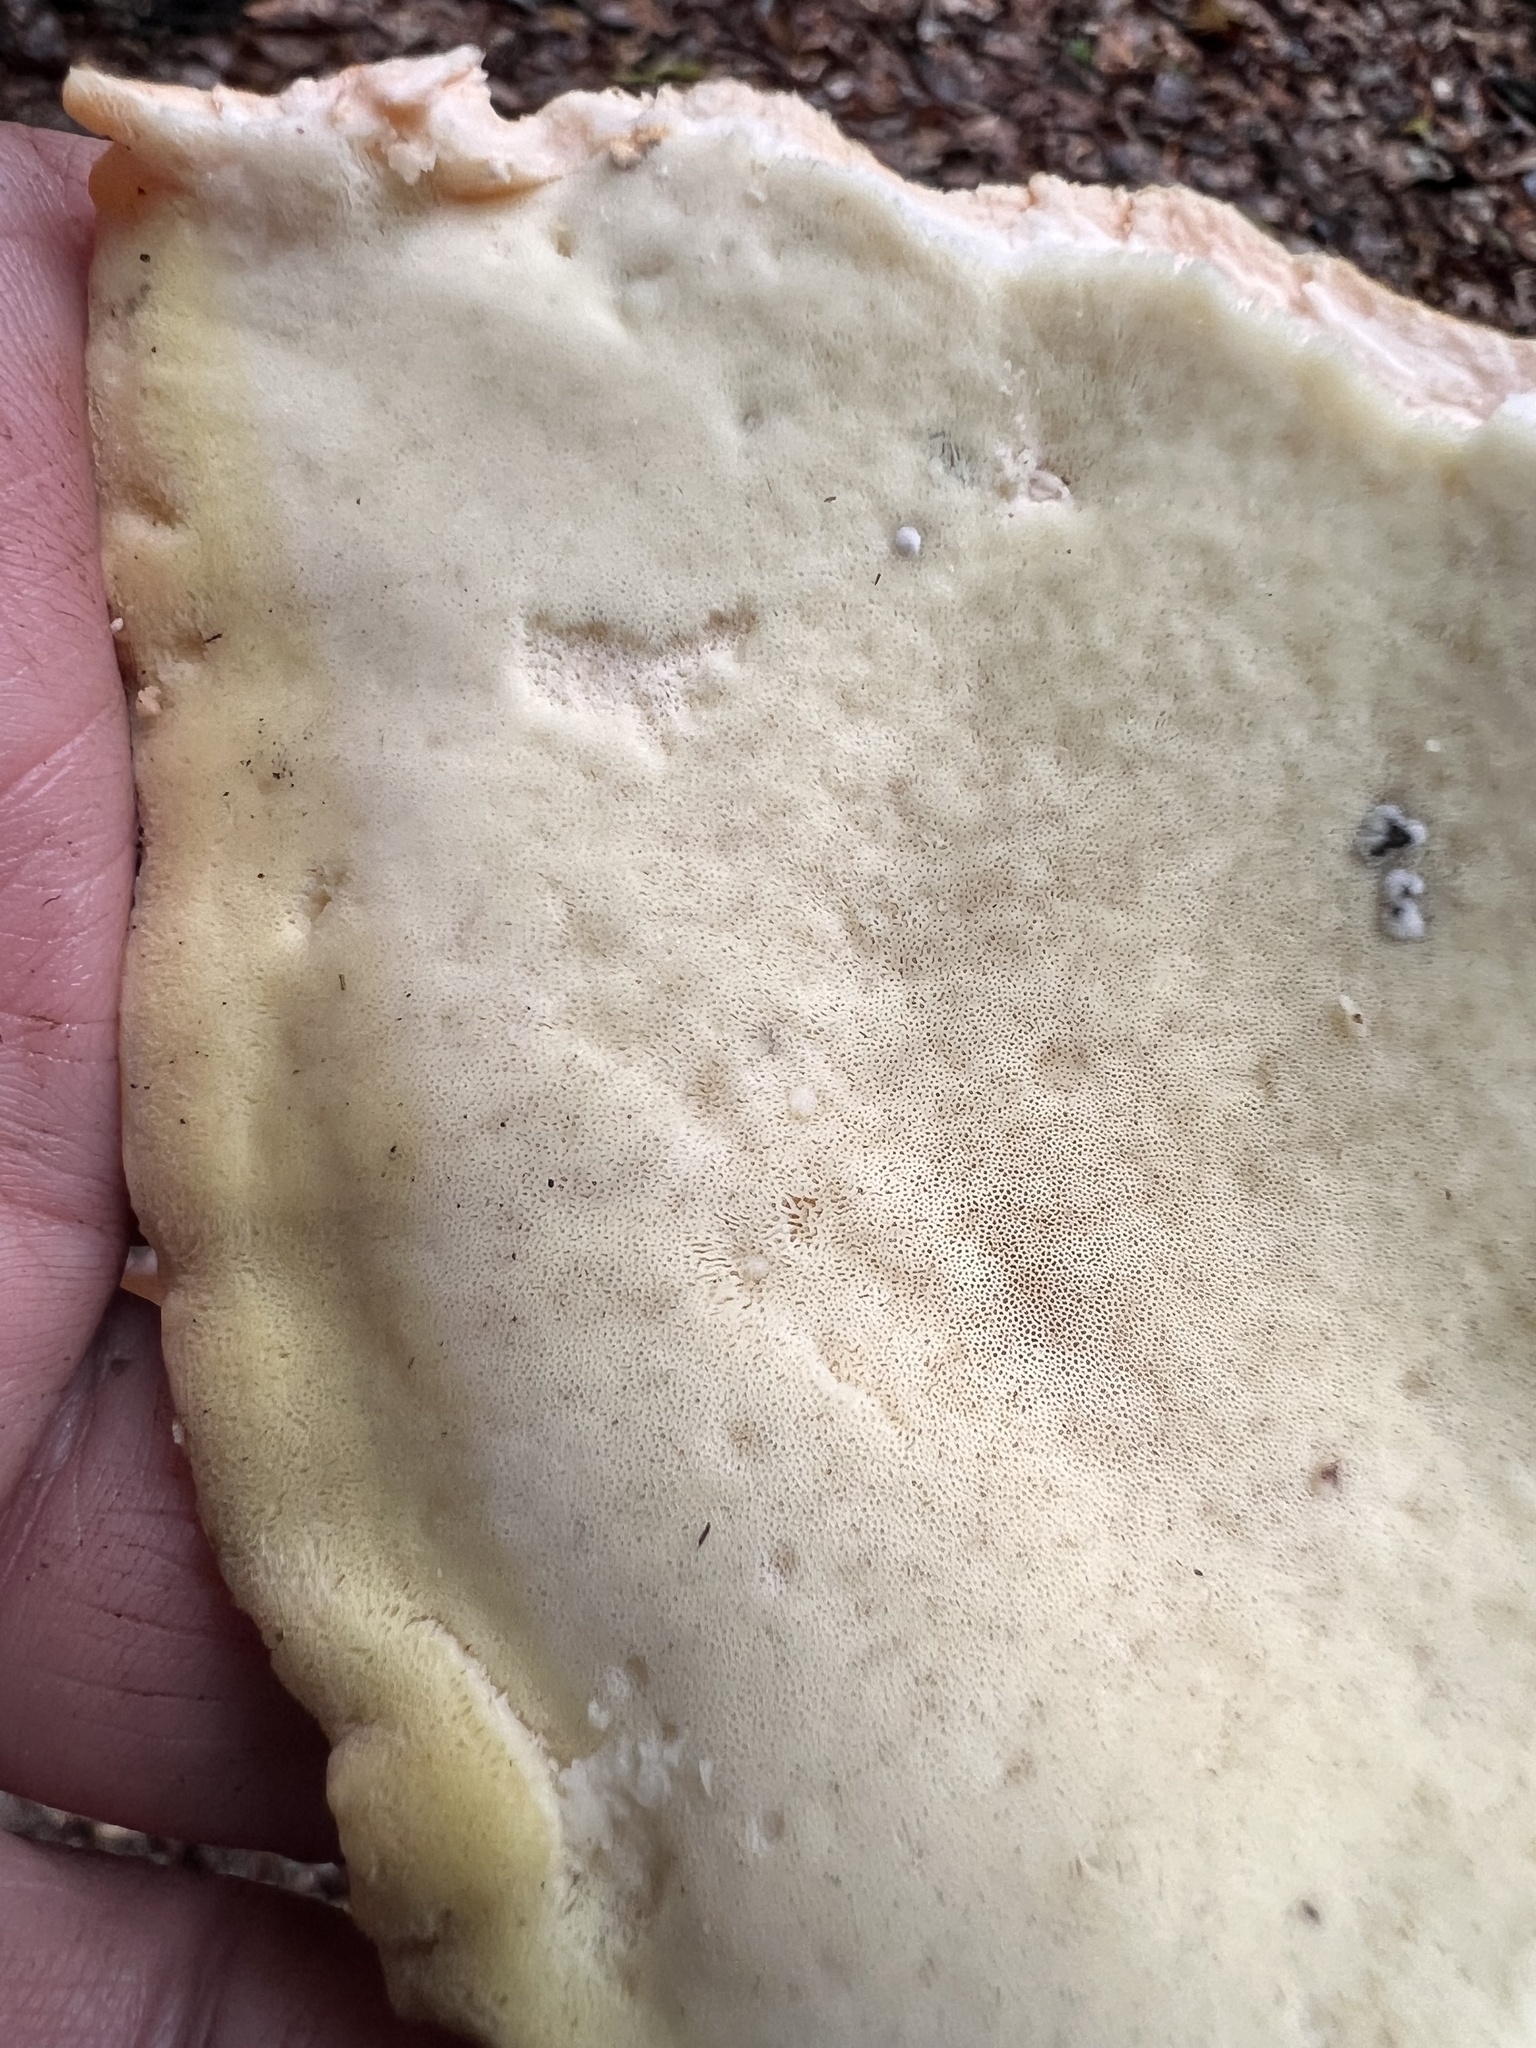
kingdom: Fungi
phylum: Basidiomycota
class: Agaricomycetes
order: Polyporales
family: Laetiporaceae
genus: Laetiporus
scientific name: Laetiporus sulphureus
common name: Chicken of the woods
